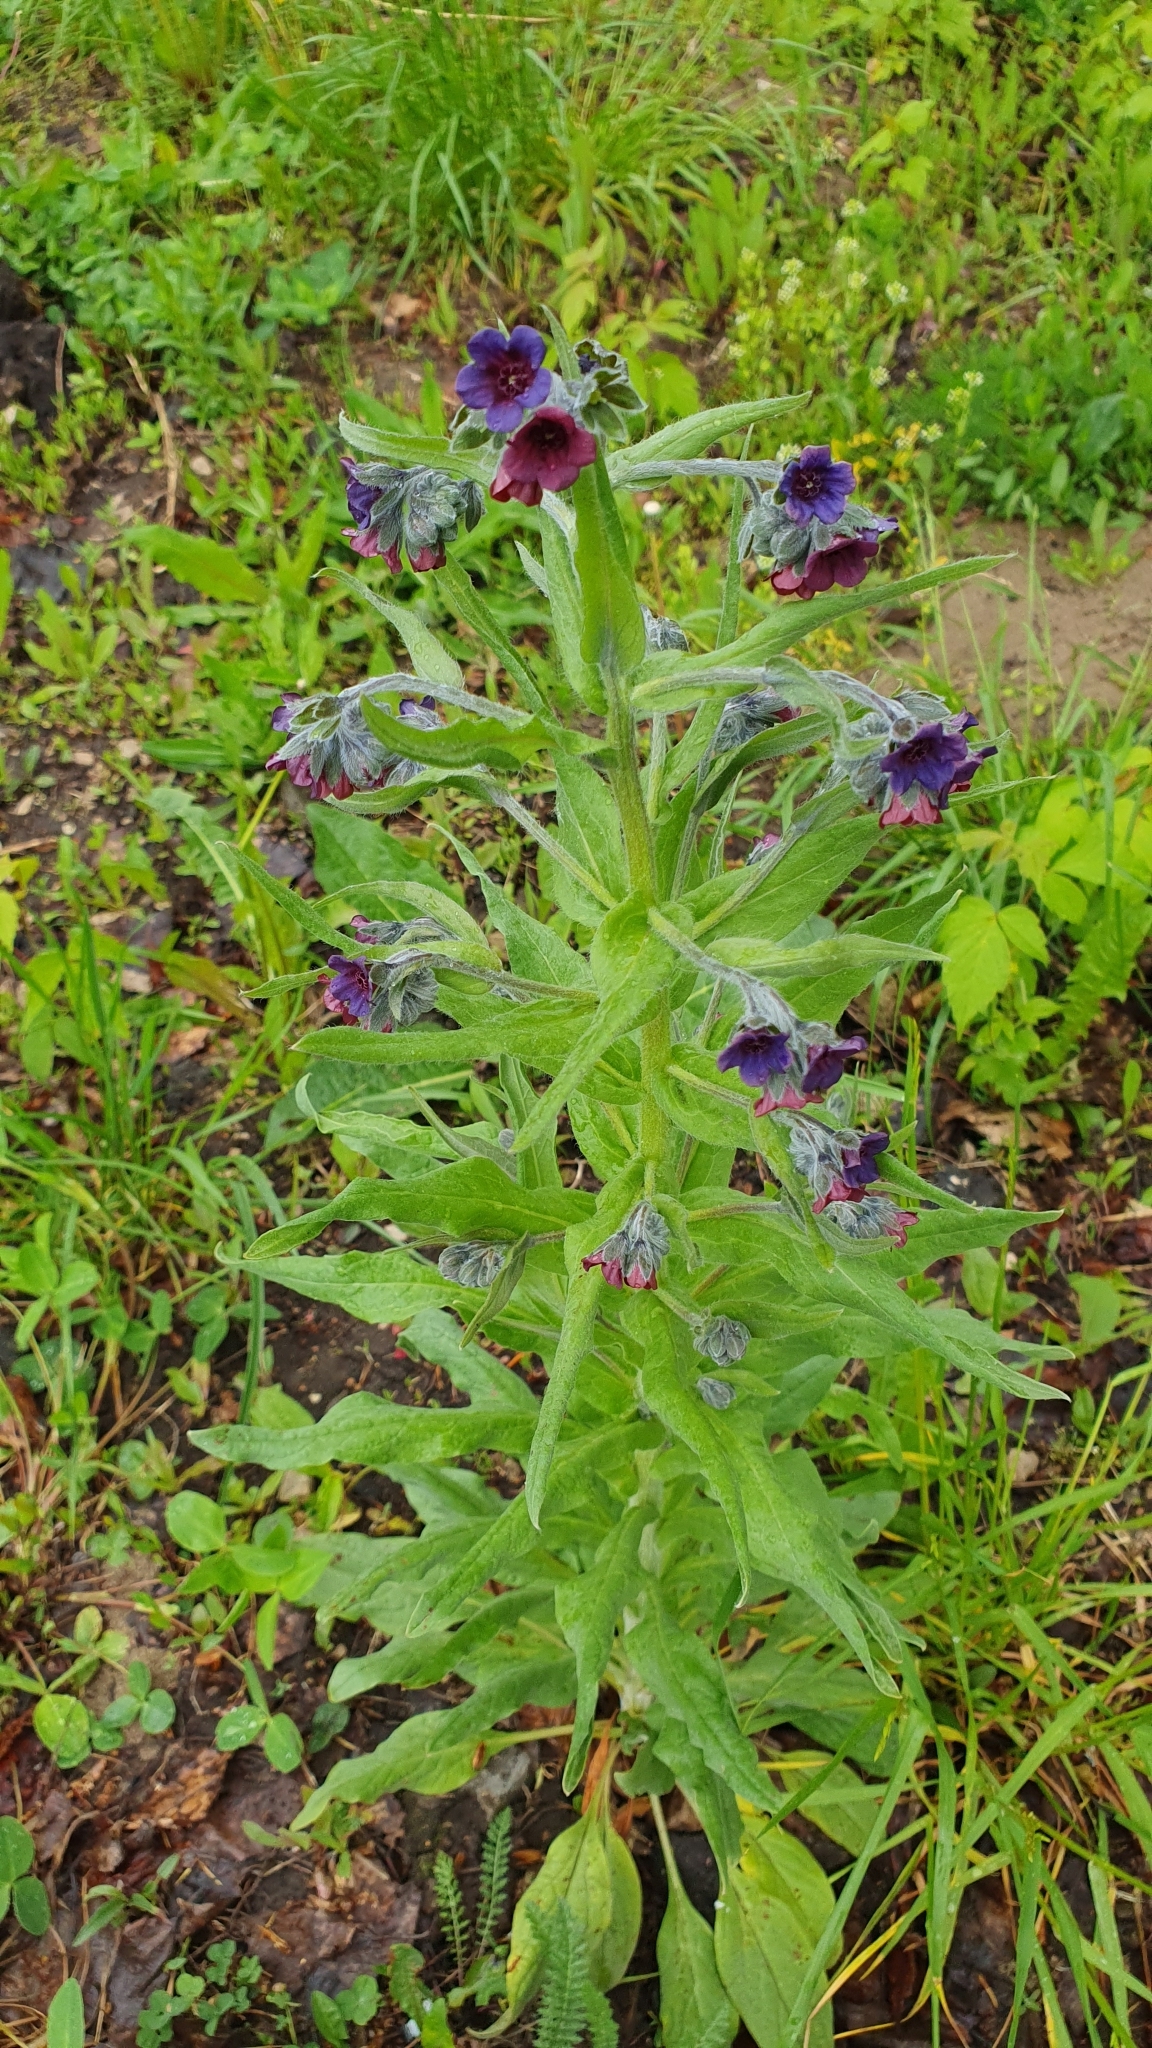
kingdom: Plantae
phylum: Tracheophyta
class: Magnoliopsida
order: Boraginales
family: Boraginaceae
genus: Cynoglossum
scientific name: Cynoglossum officinale
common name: Hound's-tongue
